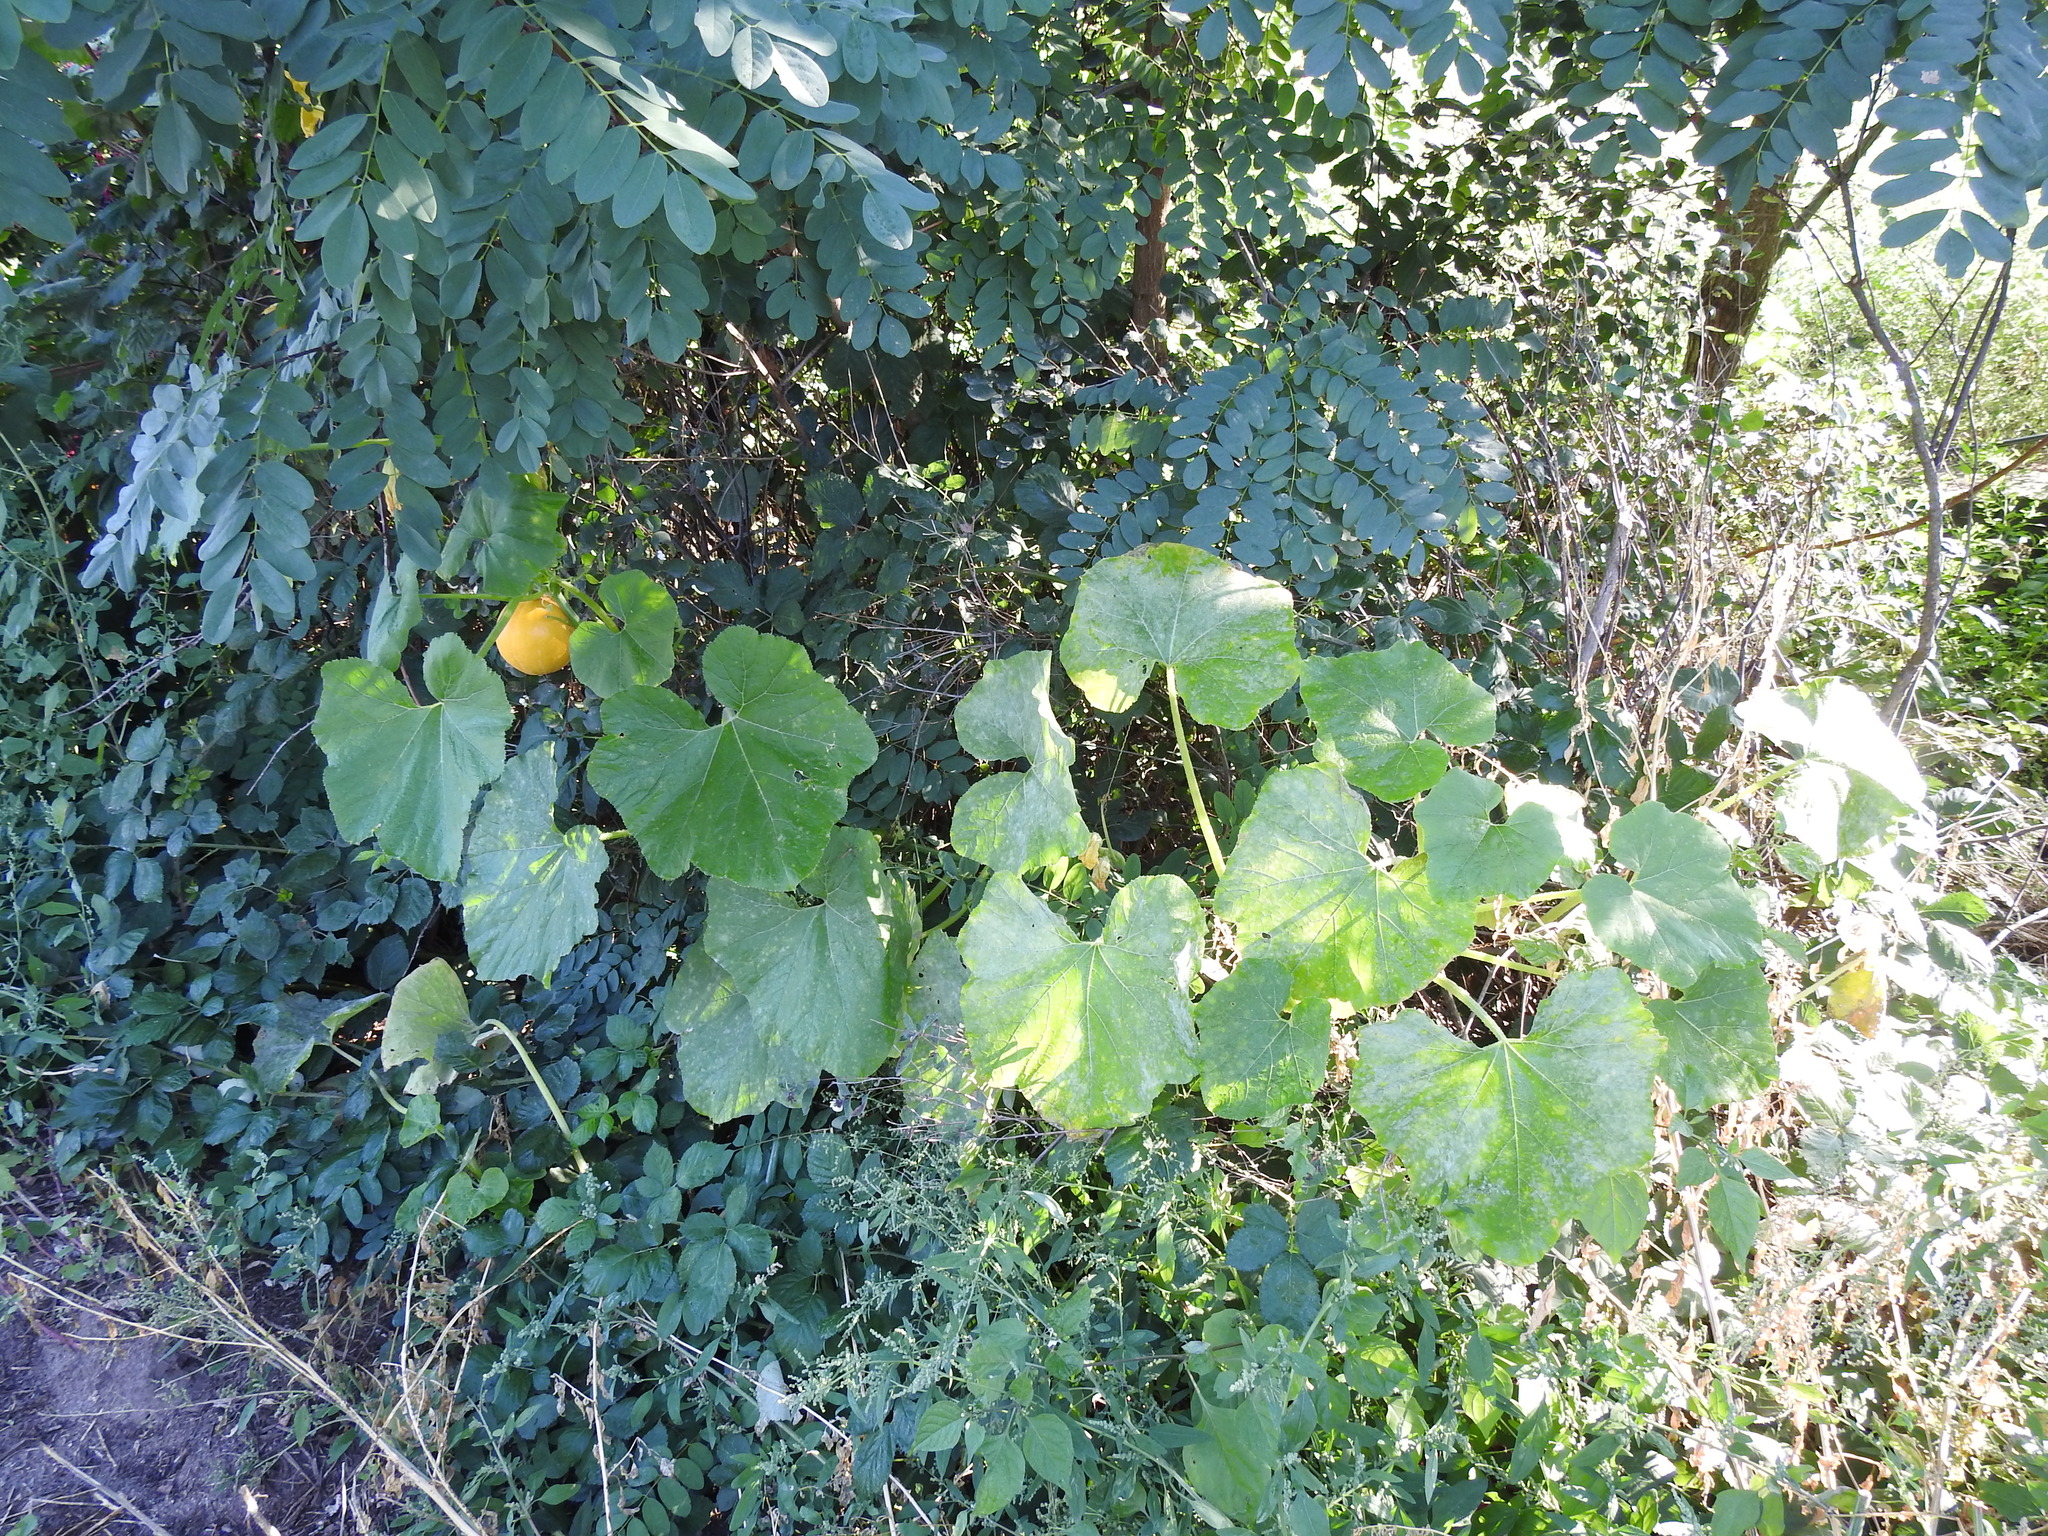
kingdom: Plantae
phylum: Tracheophyta
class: Magnoliopsida
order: Cucurbitales
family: Cucurbitaceae
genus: Cucurbita
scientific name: Cucurbita maxima
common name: Pumpkin
